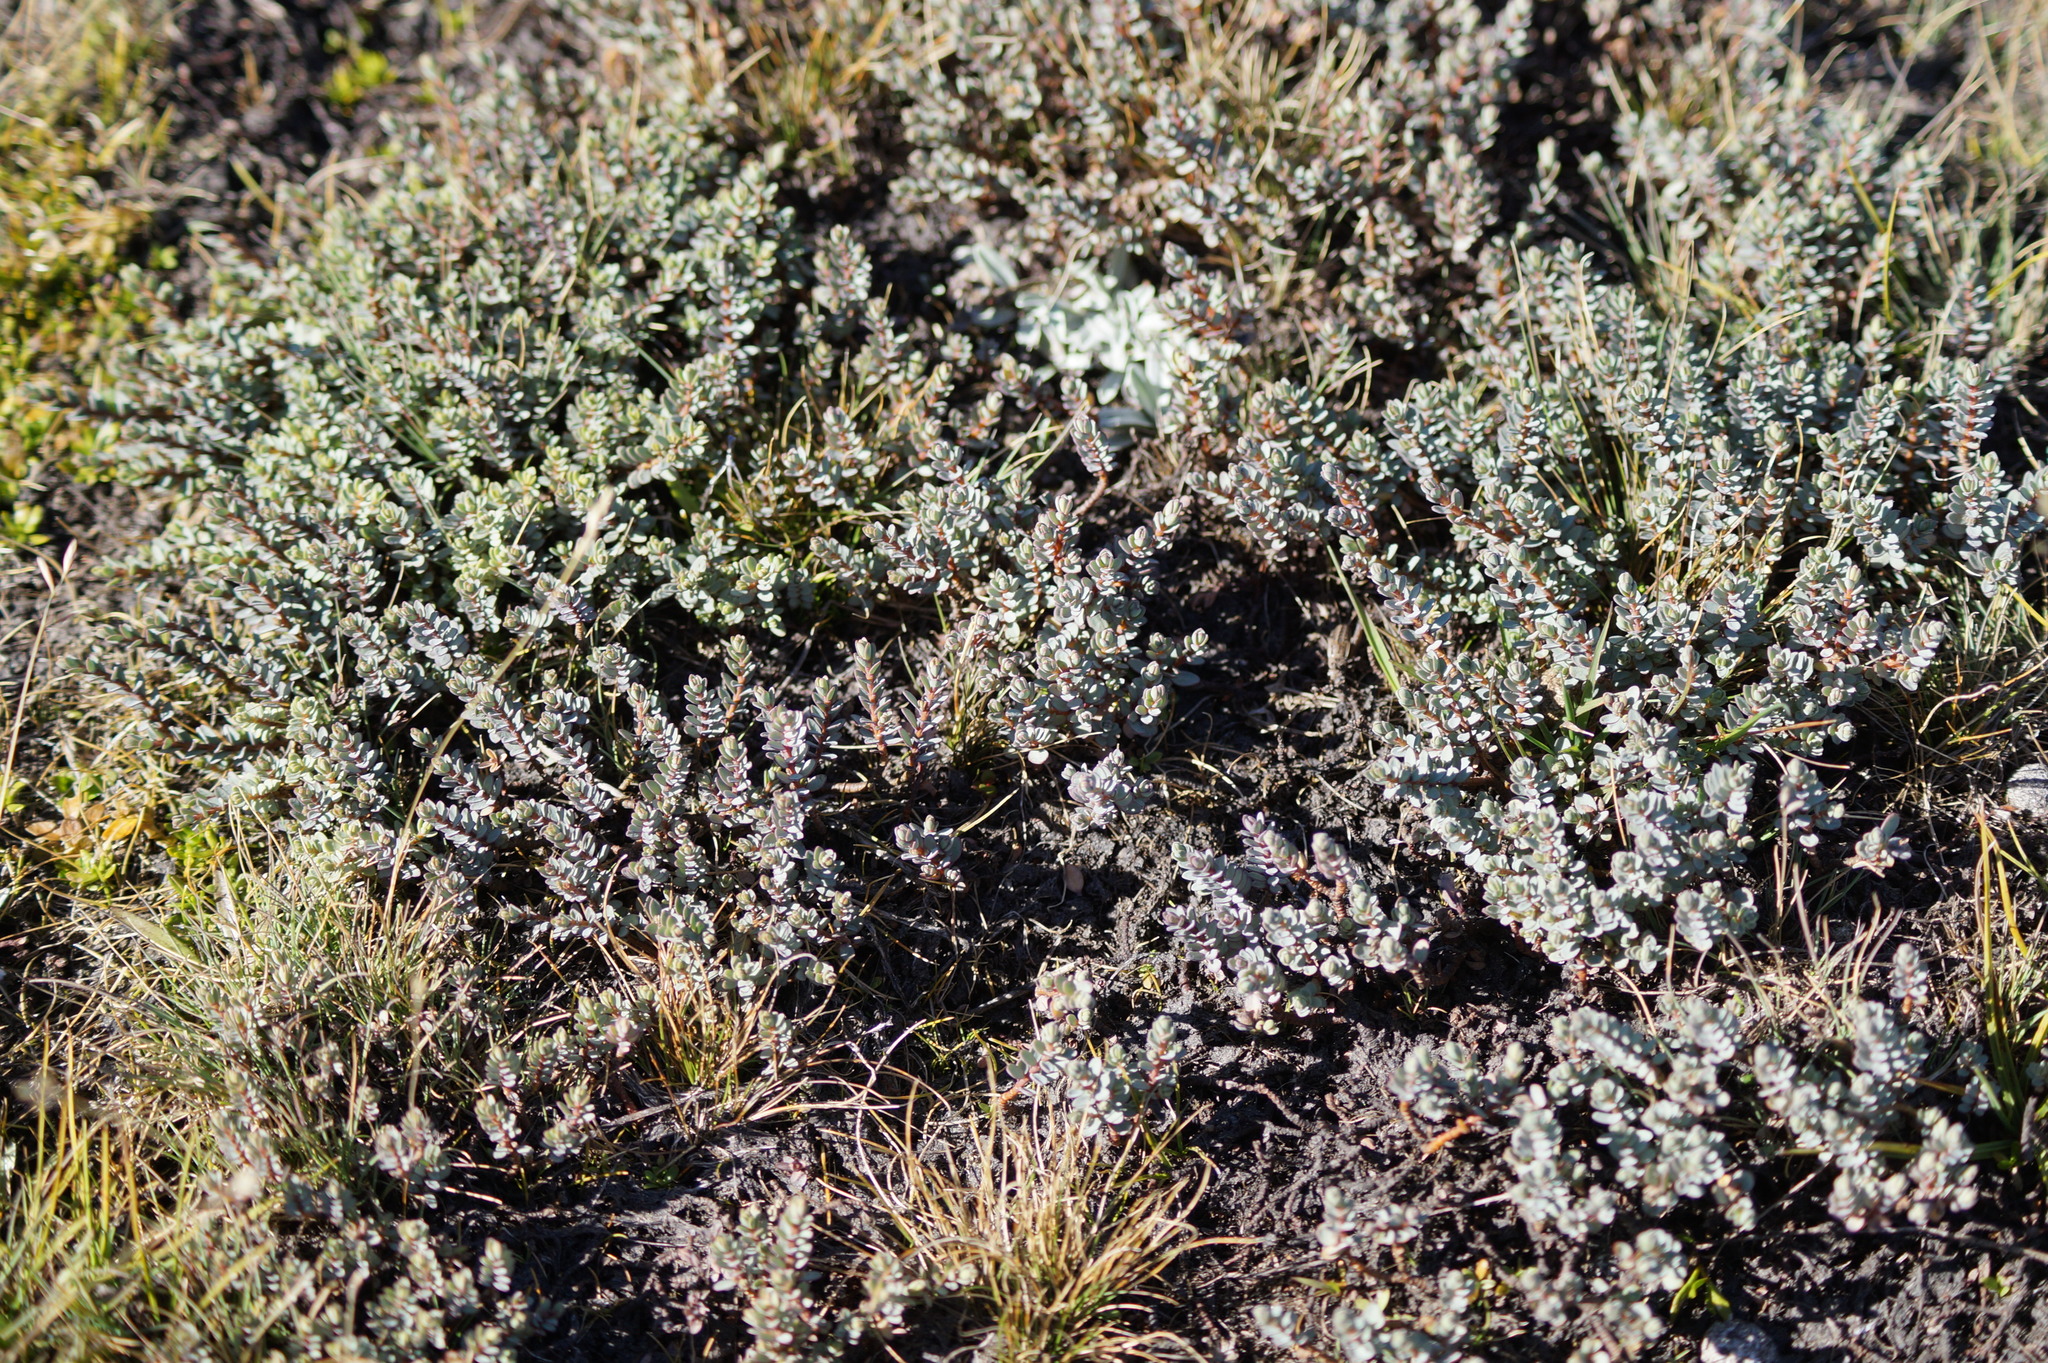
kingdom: Plantae
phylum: Tracheophyta
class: Magnoliopsida
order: Malvales
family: Thymelaeaceae
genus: Pimelea
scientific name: Pimelea prostrata
